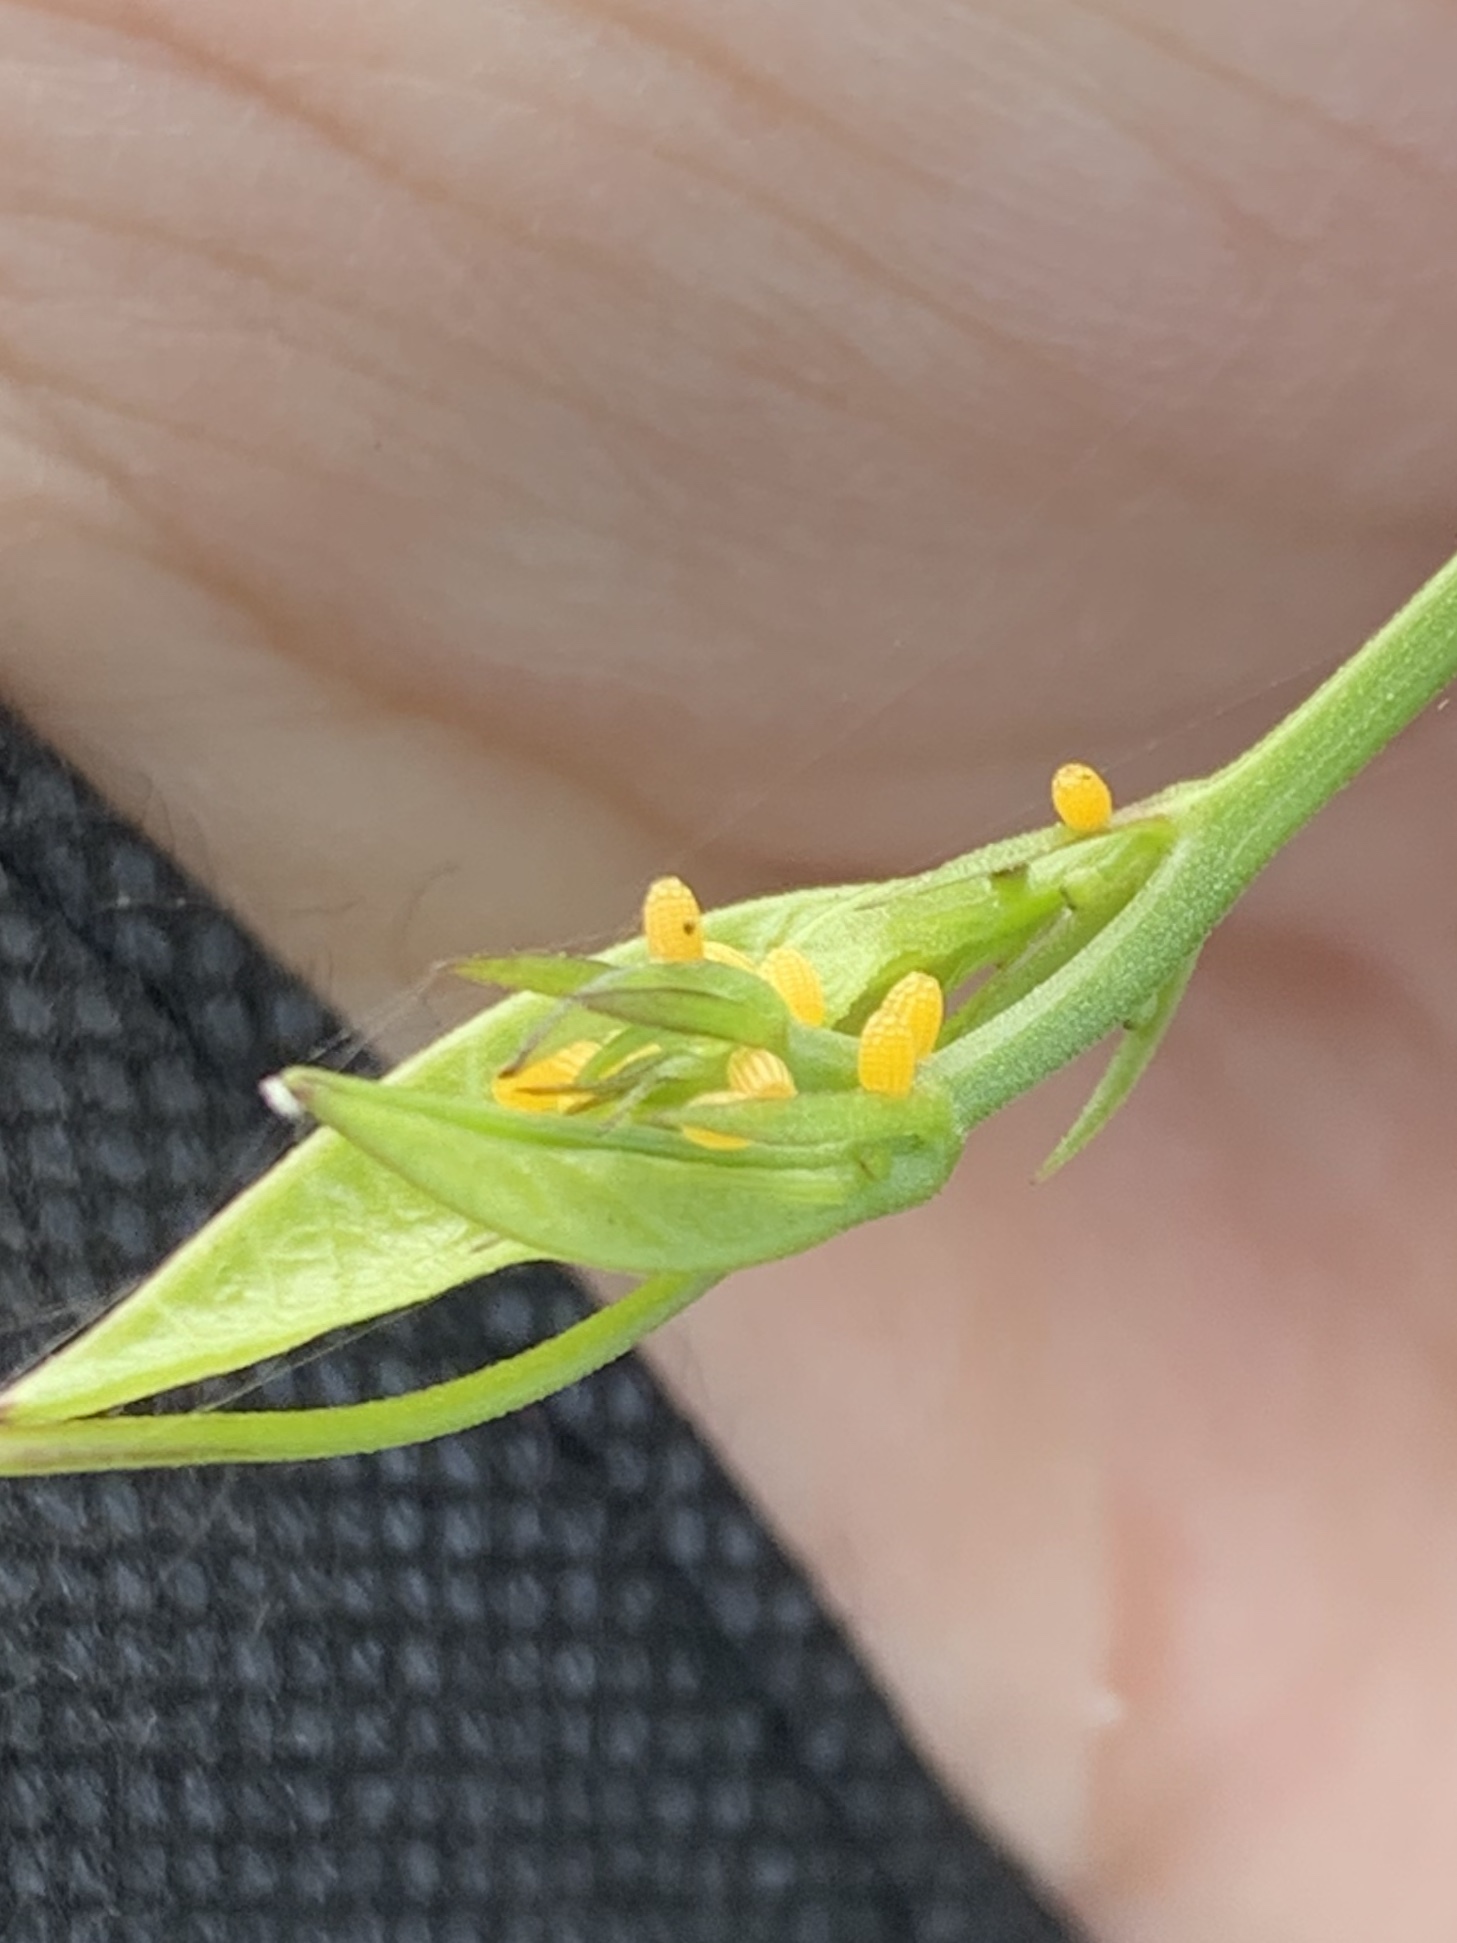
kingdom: Animalia
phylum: Arthropoda
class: Insecta
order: Lepidoptera
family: Nymphalidae
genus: Heliconius
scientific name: Heliconius charithonia
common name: Zebra long wing
